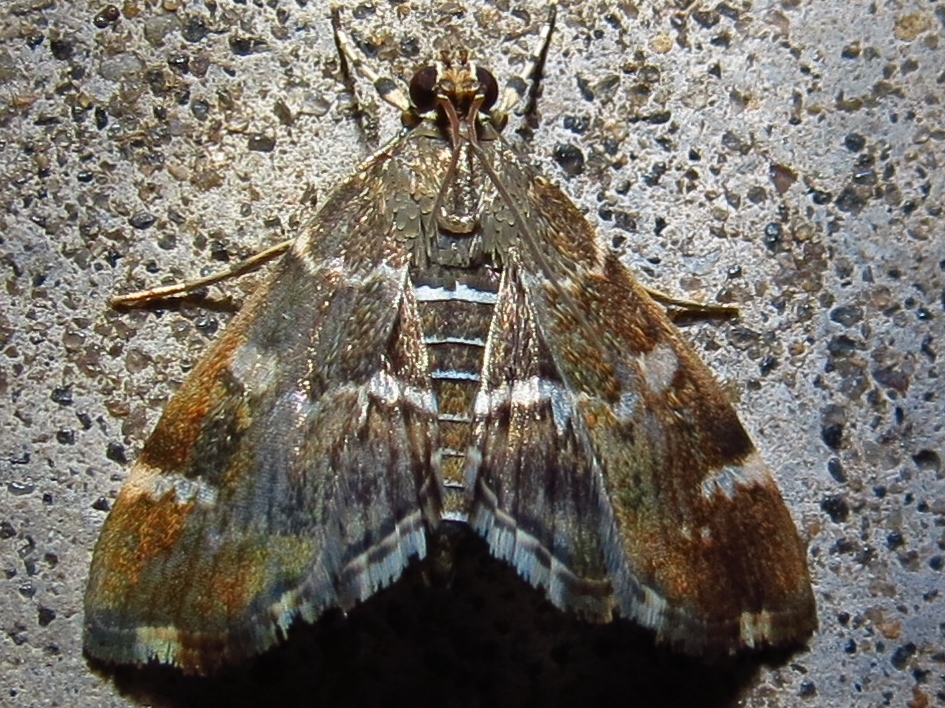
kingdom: Animalia
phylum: Arthropoda
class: Insecta
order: Lepidoptera
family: Crambidae
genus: Hymenia
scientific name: Hymenia perspectalis
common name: Spotted beet webworm
